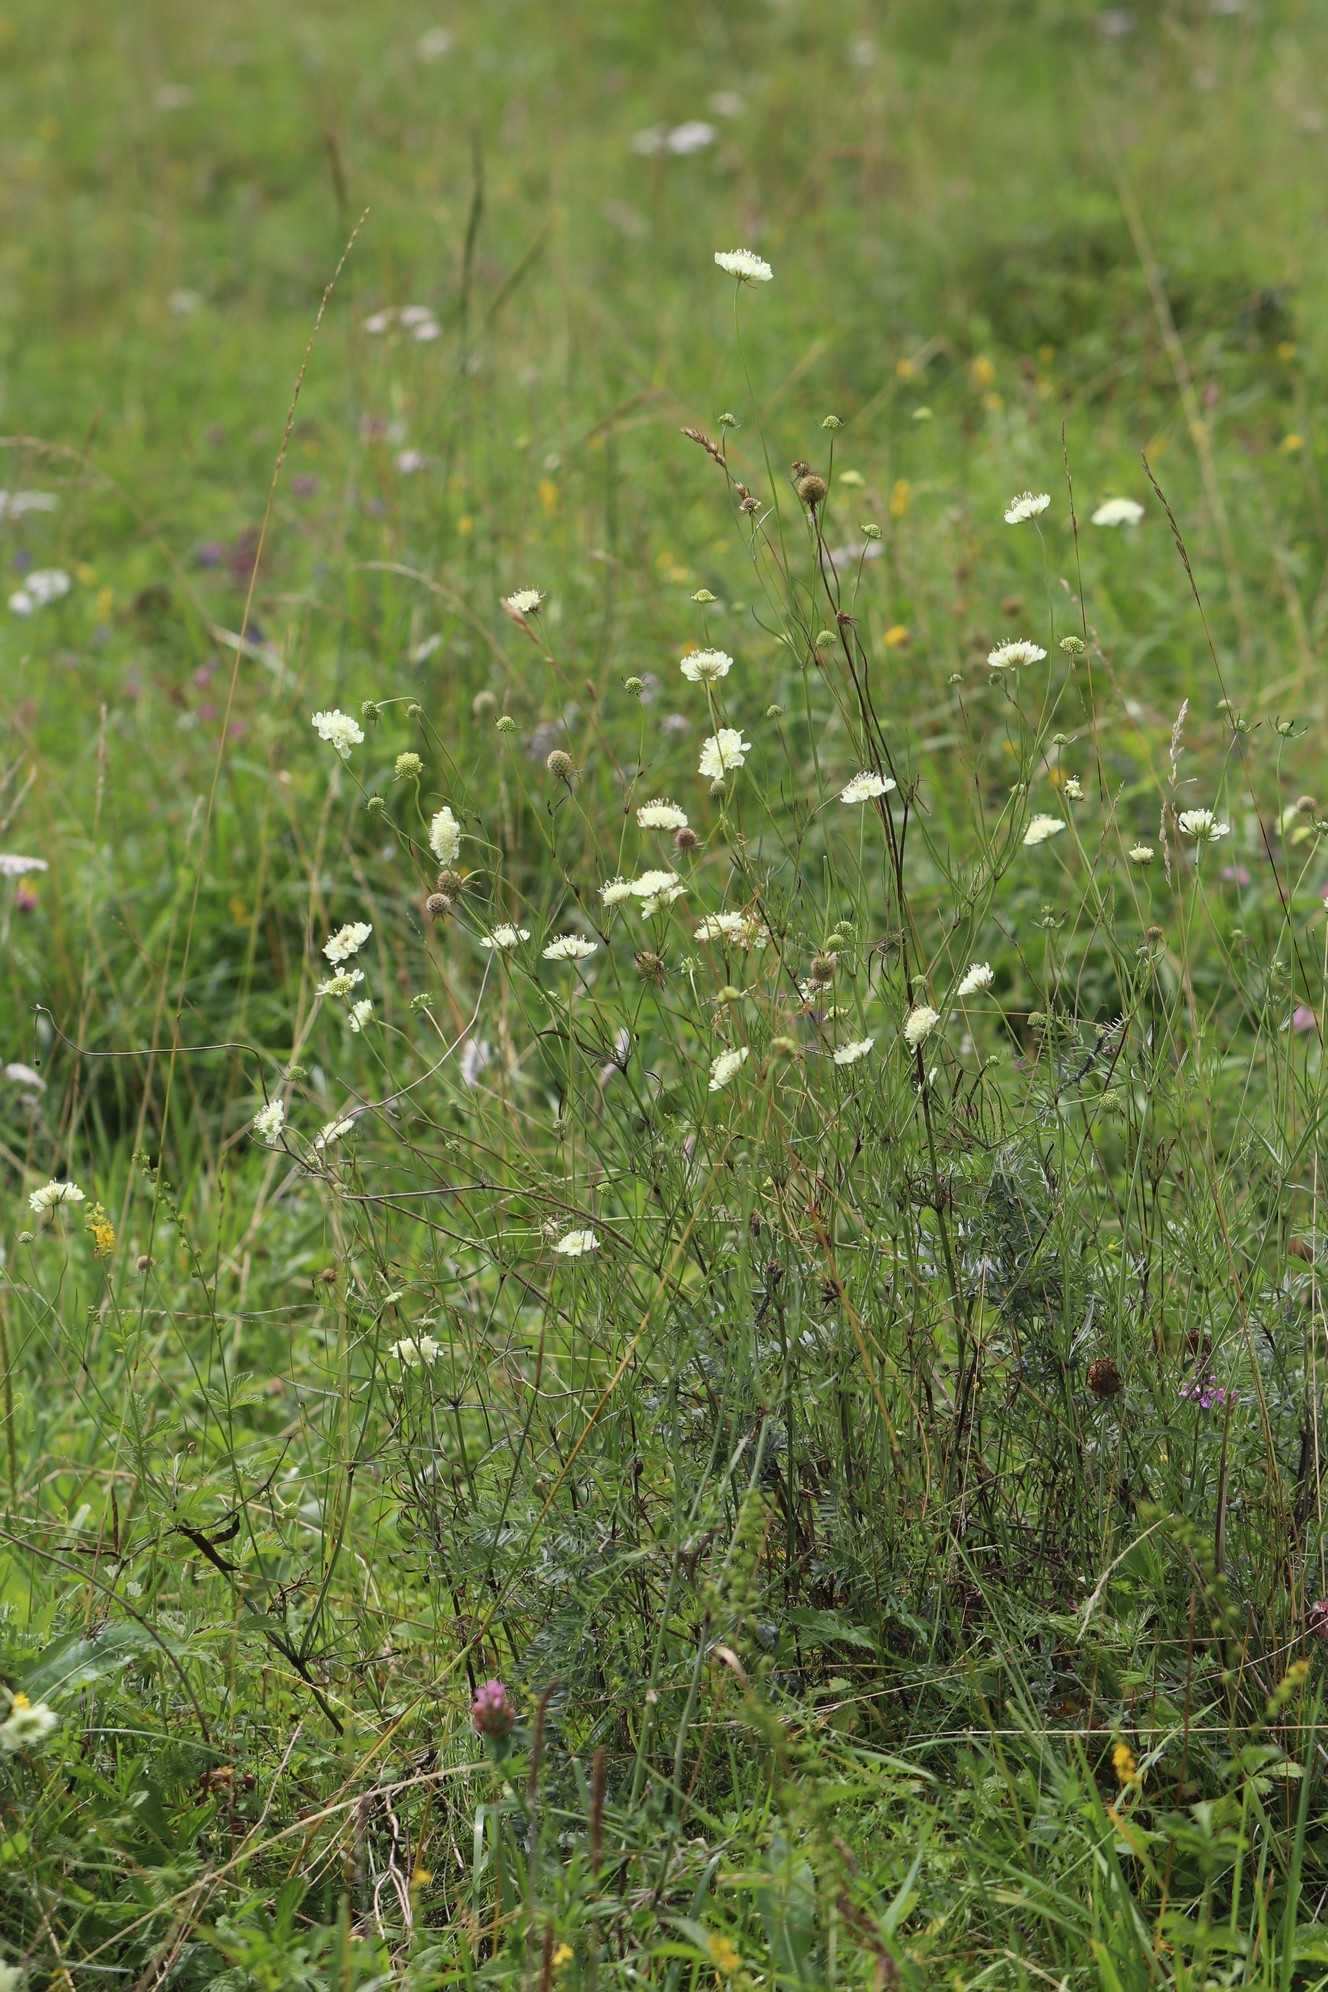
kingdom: Plantae
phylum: Tracheophyta
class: Magnoliopsida
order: Dipsacales
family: Caprifoliaceae
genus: Scabiosa
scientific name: Scabiosa ochroleuca
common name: Cream pincushions
